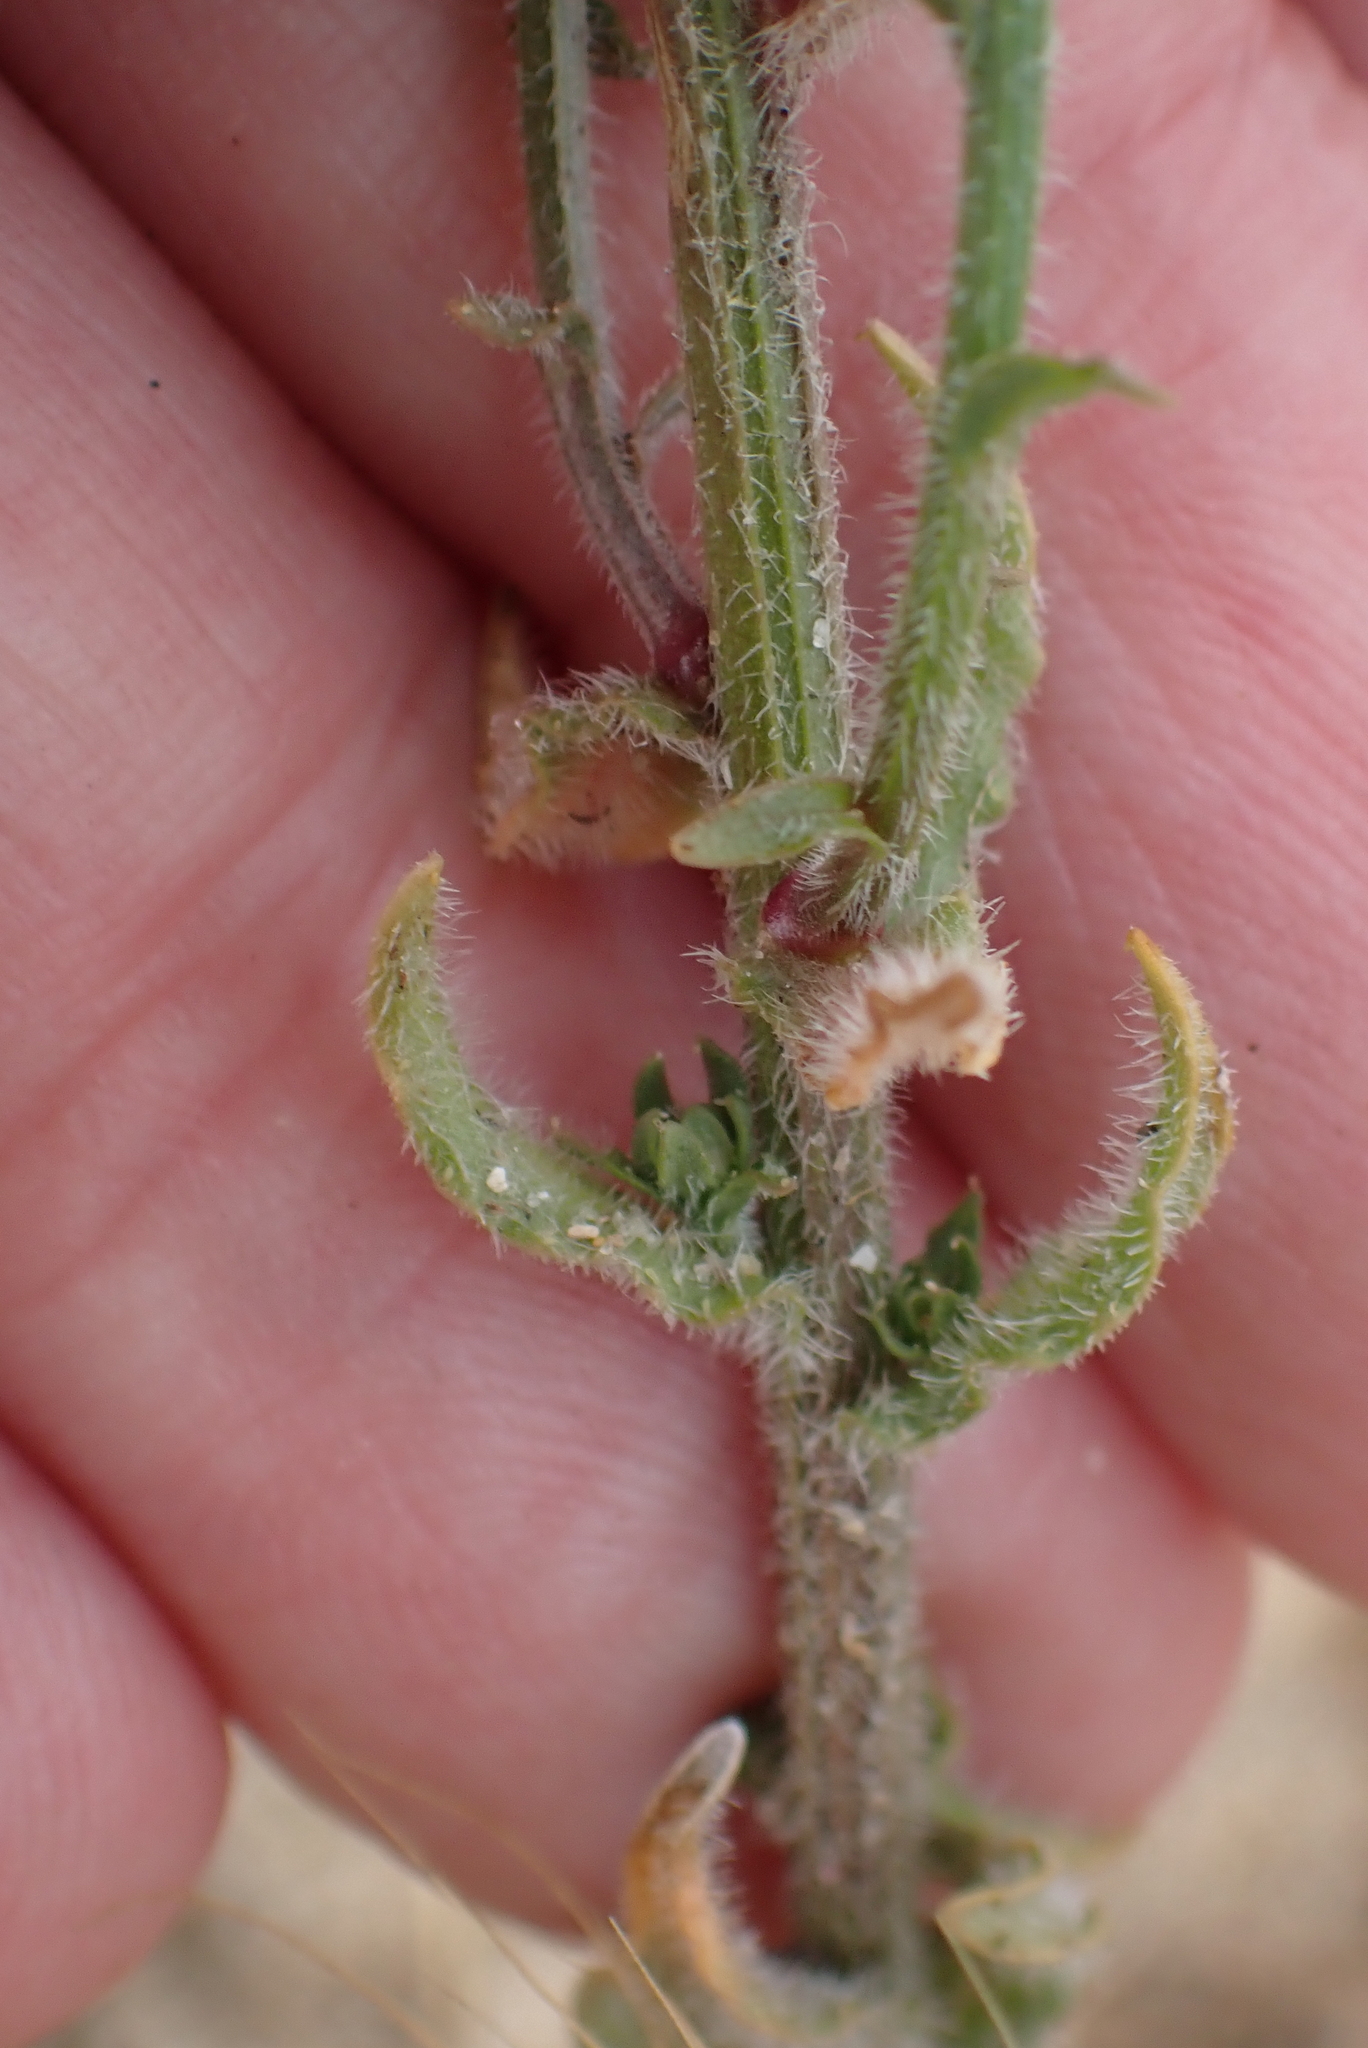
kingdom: Plantae
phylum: Tracheophyta
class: Magnoliopsida
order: Asterales
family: Campanulaceae
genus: Jasione
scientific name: Jasione montana
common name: Sheep's-bit
